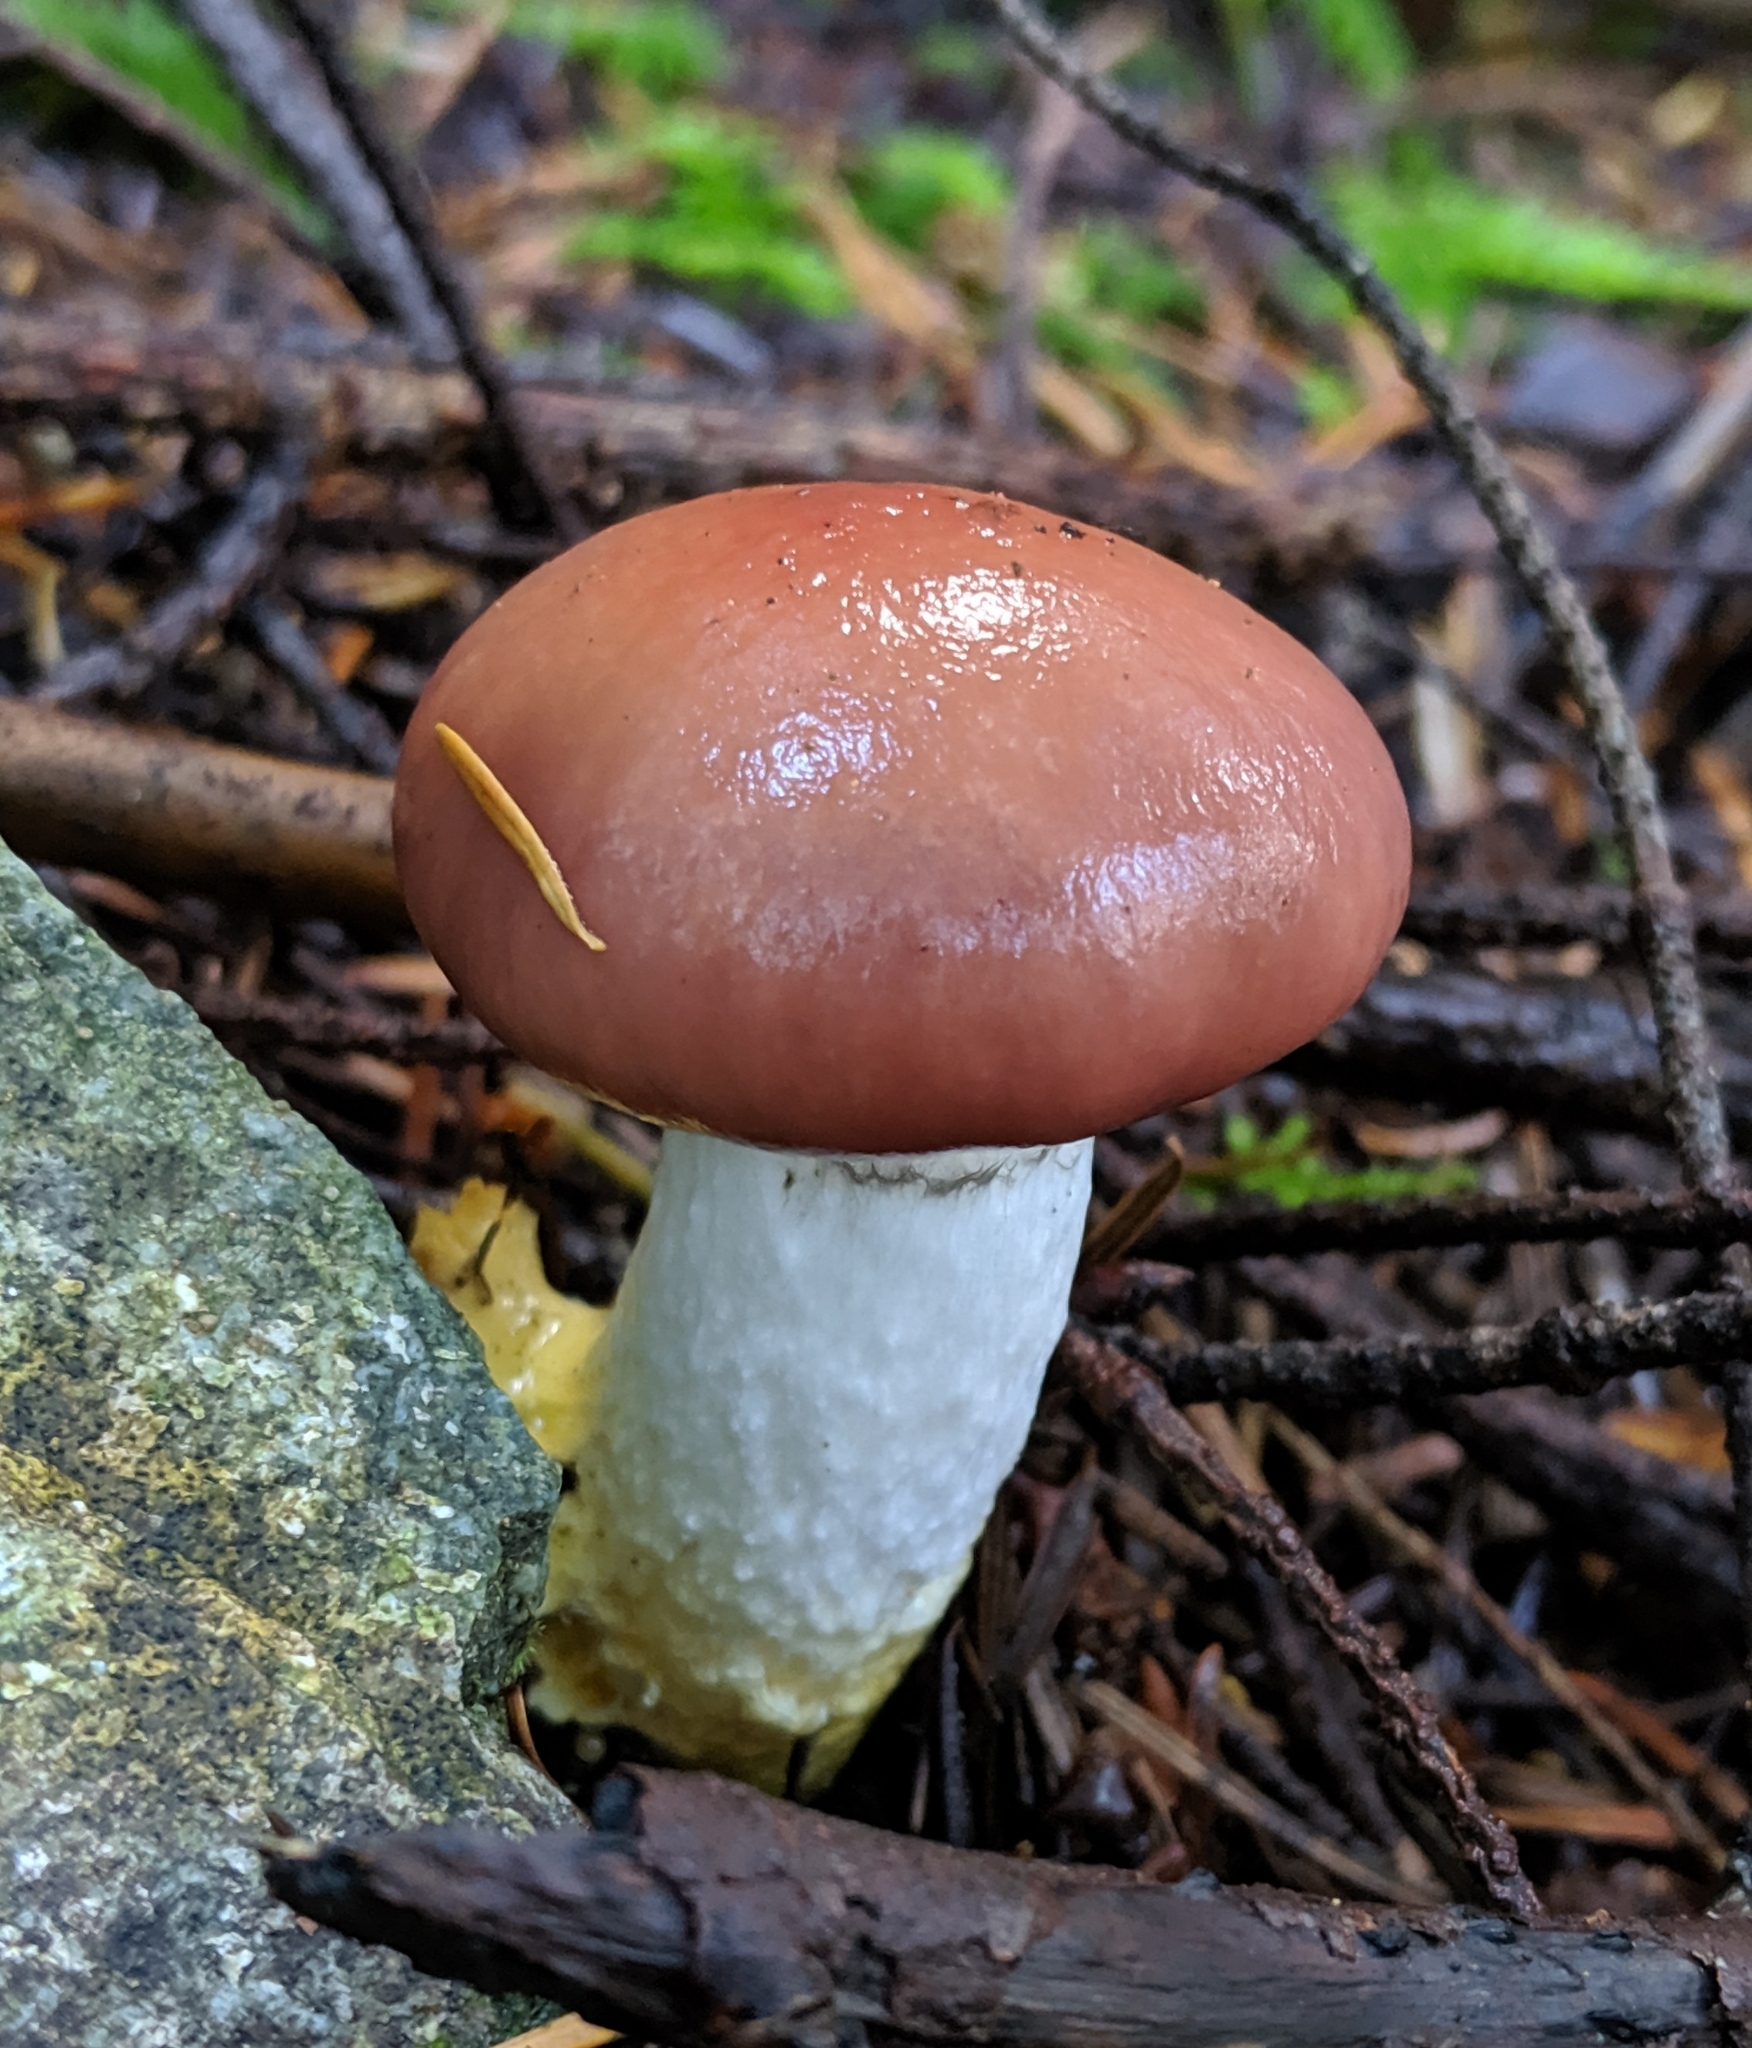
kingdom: Fungi
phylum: Basidiomycota
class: Agaricomycetes
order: Boletales
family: Gomphidiaceae
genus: Gomphidius
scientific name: Gomphidius subroseus
